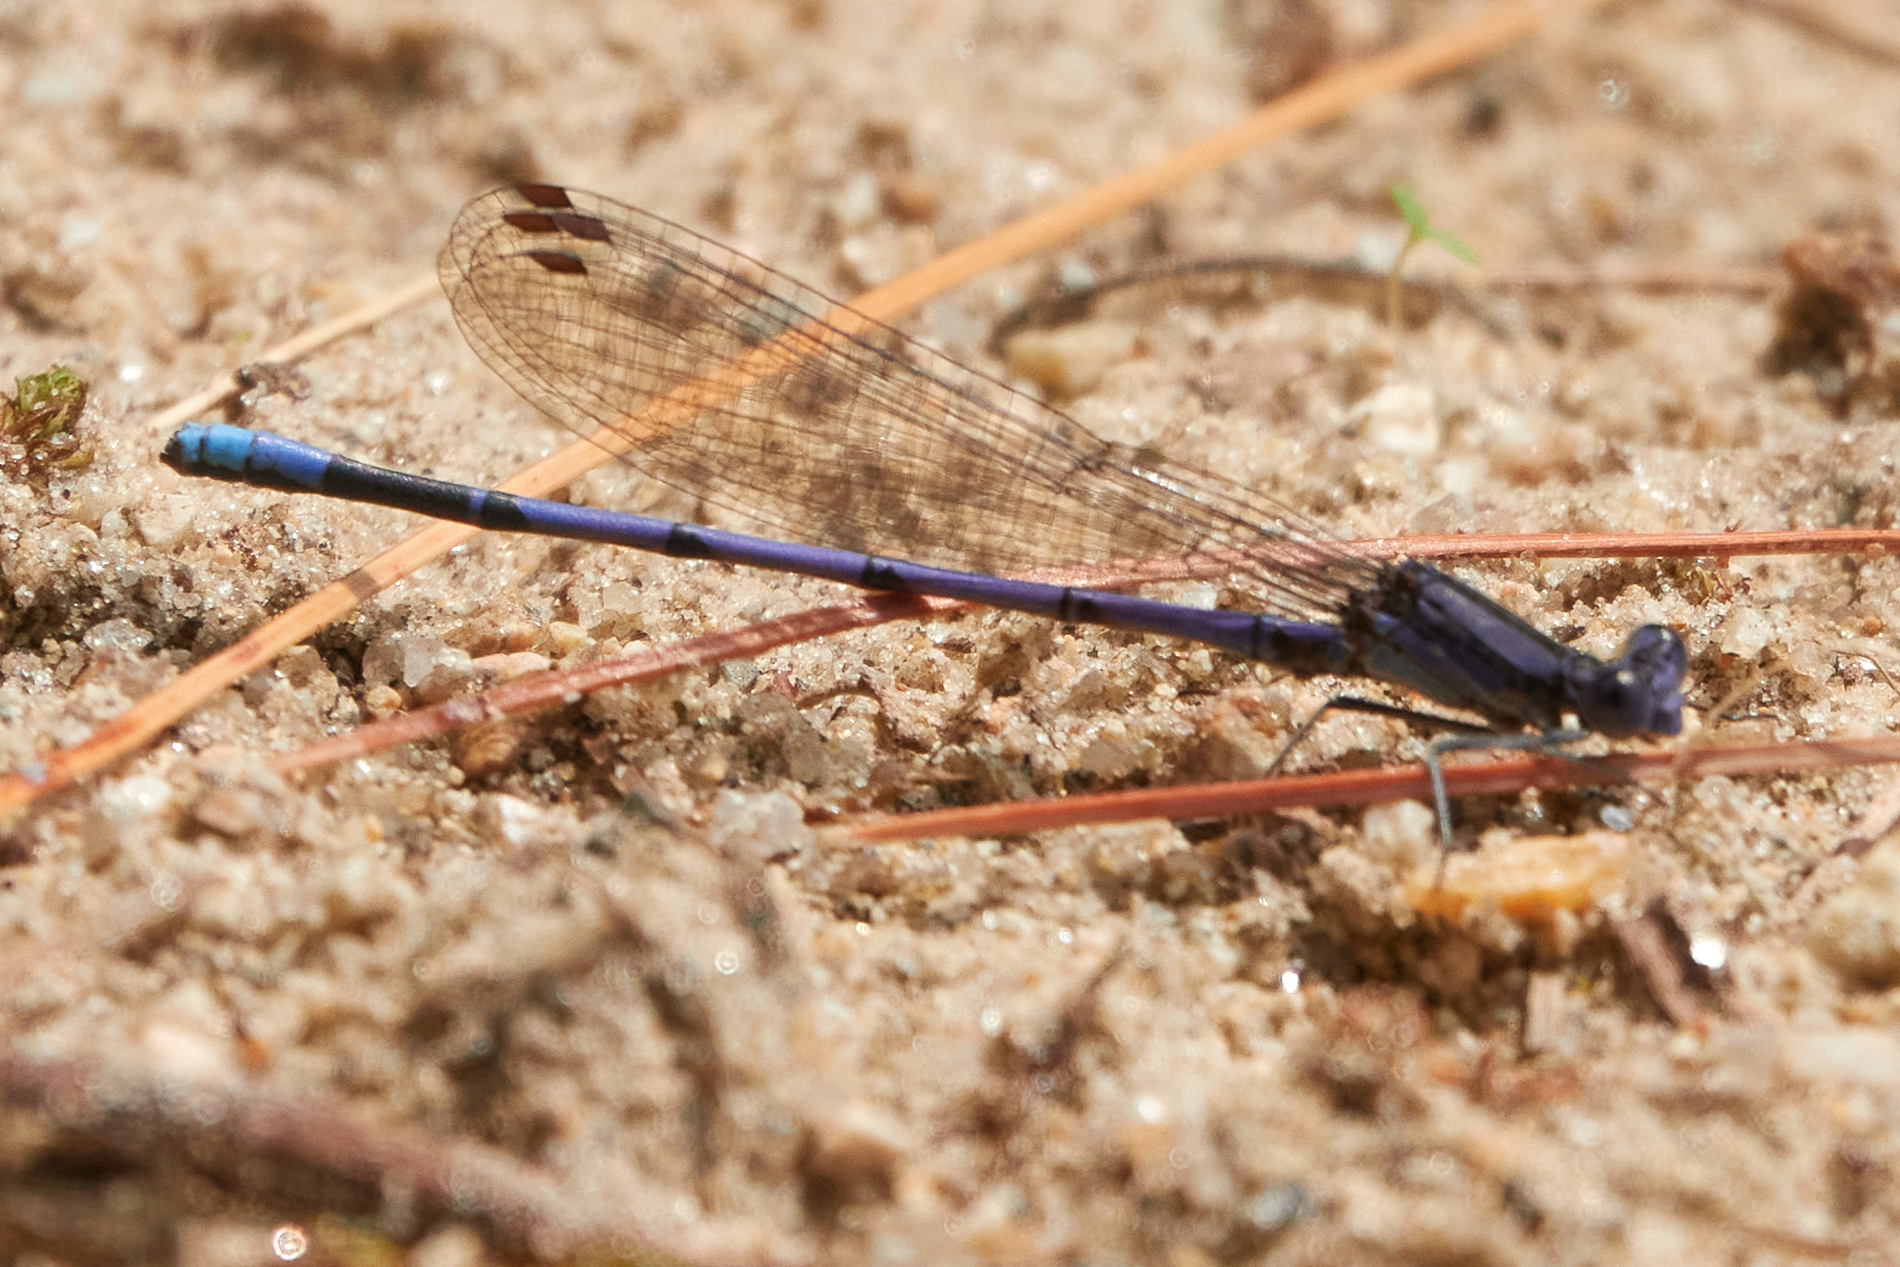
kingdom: Animalia
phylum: Arthropoda
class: Insecta
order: Odonata
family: Coenagrionidae
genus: Argia
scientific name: Argia fumipennis
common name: Variable dancer
